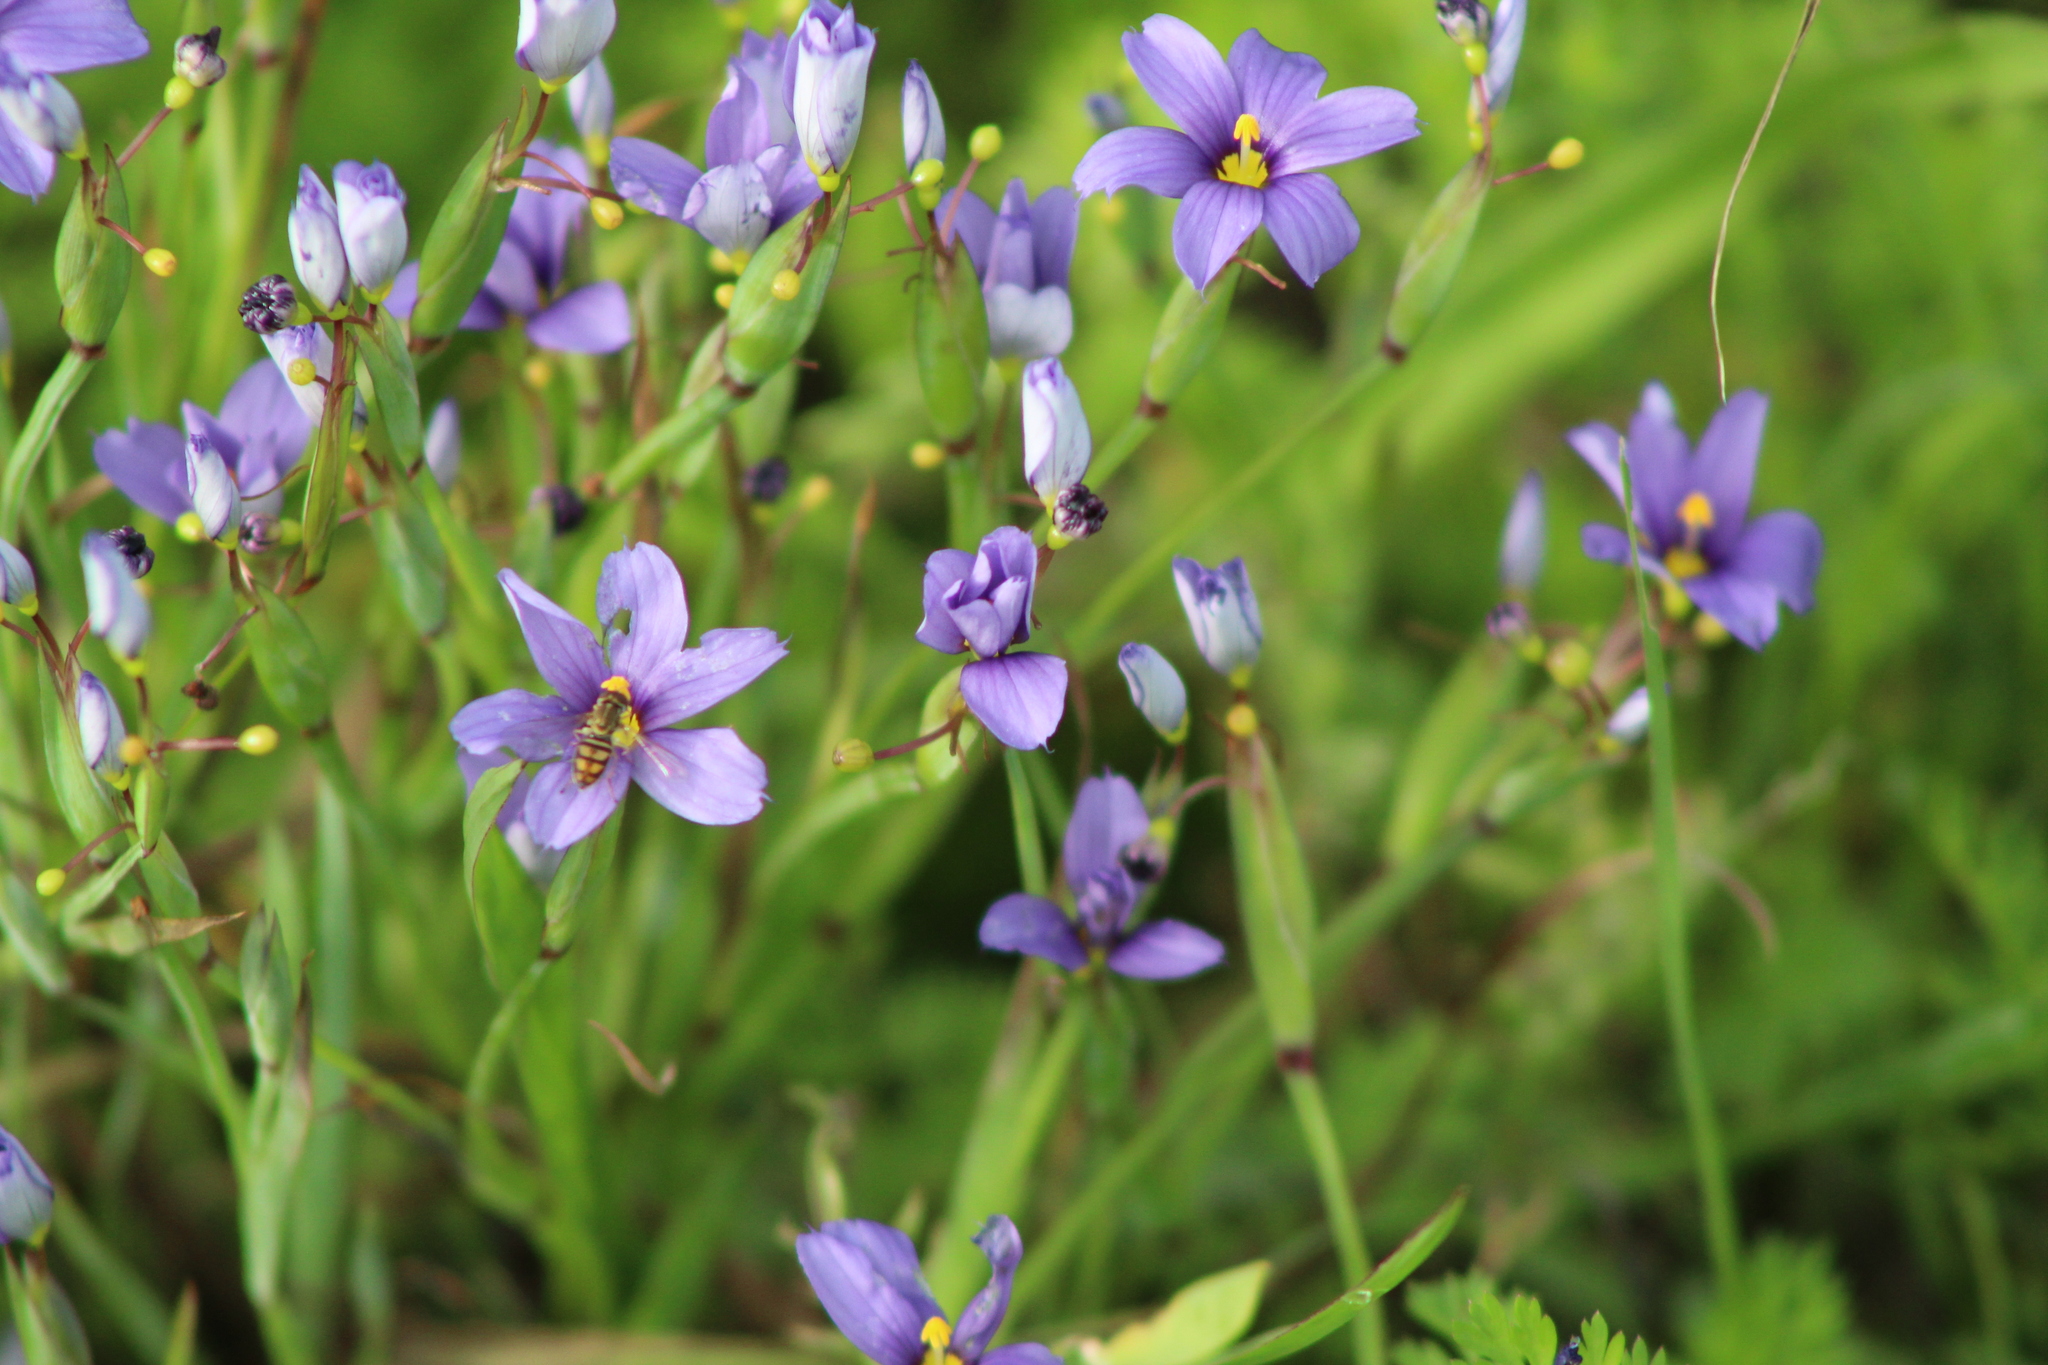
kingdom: Animalia
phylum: Arthropoda
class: Insecta
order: Diptera
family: Syrphidae
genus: Toxomerus
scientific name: Toxomerus marginatus
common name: Syrphid fly
